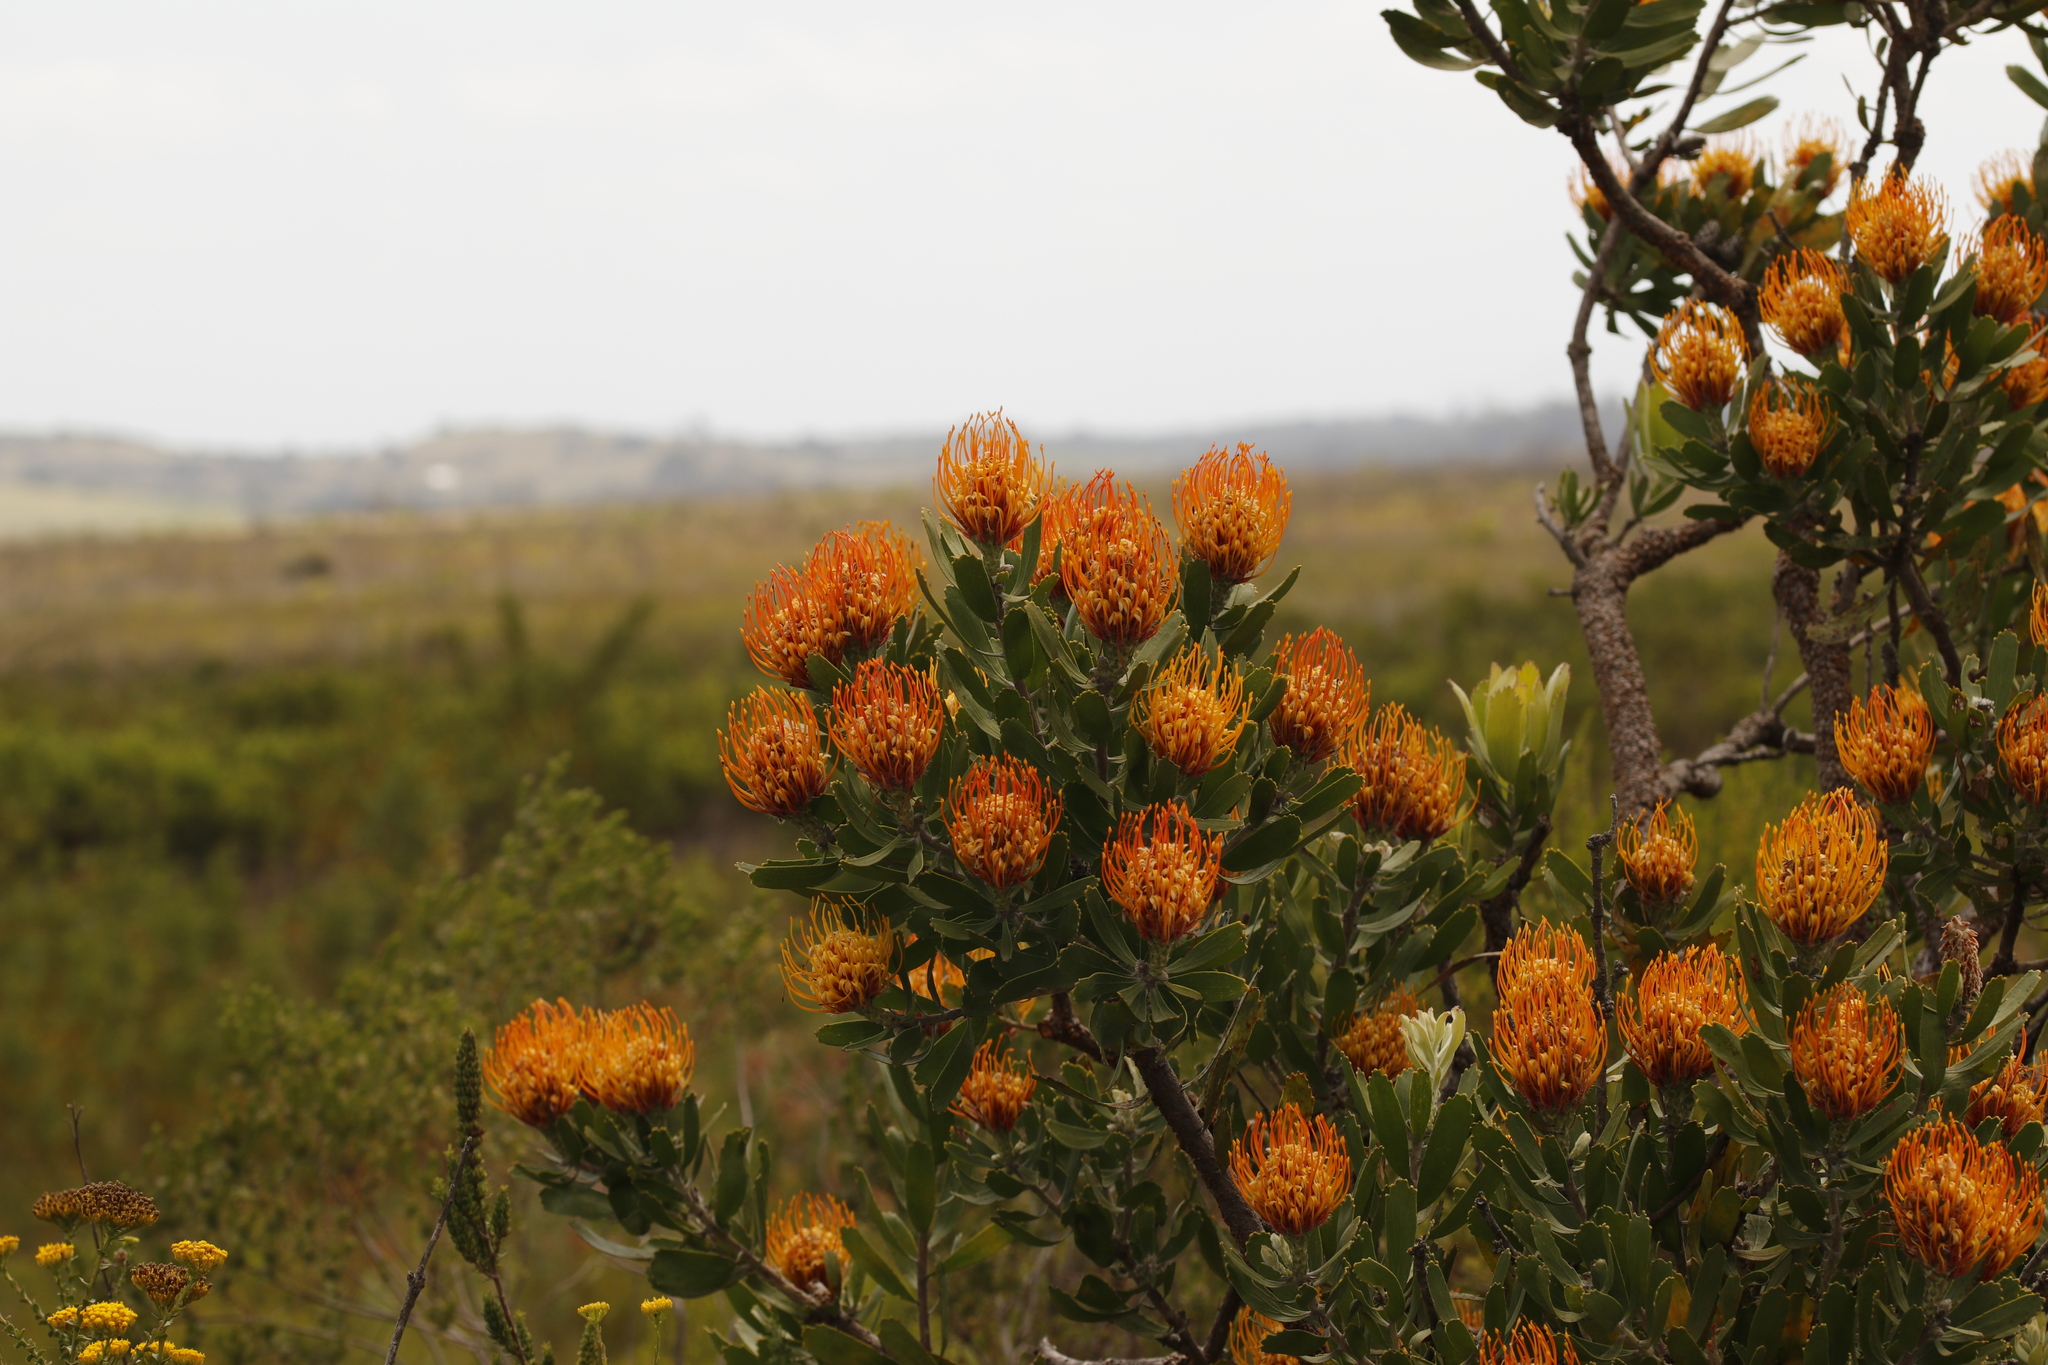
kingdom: Plantae
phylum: Tracheophyta
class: Magnoliopsida
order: Proteales
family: Proteaceae
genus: Leucospermum
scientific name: Leucospermum cuneiforme
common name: Common pincushion
